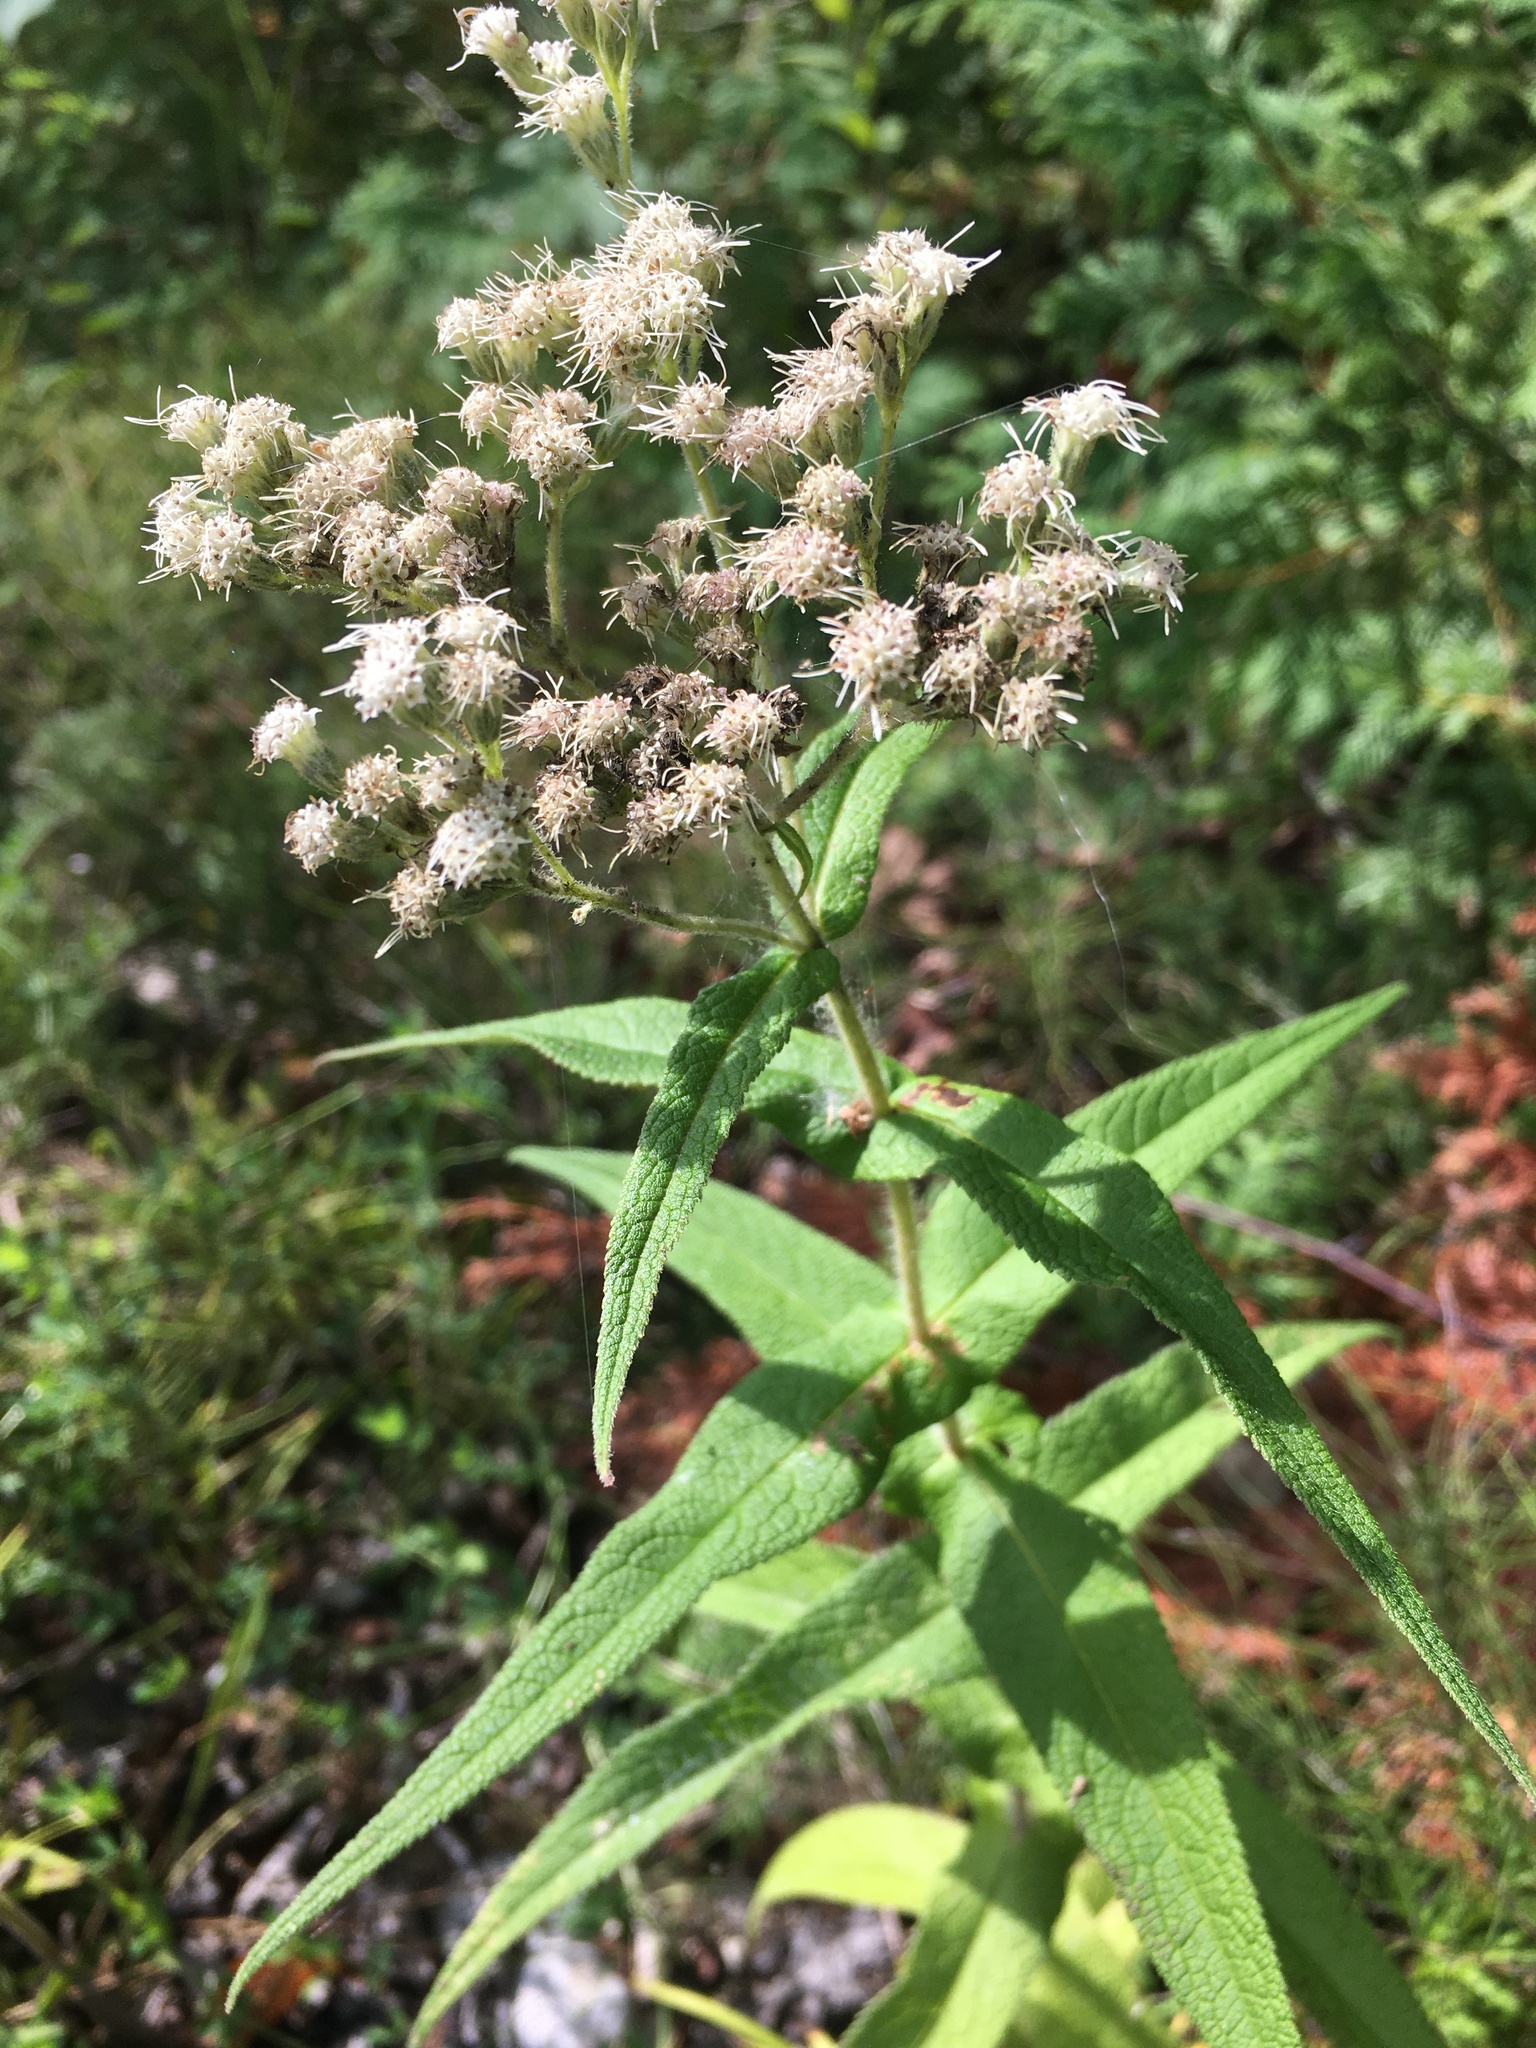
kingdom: Plantae
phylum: Tracheophyta
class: Magnoliopsida
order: Asterales
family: Asteraceae
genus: Eupatorium
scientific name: Eupatorium perfoliatum
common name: Boneset
